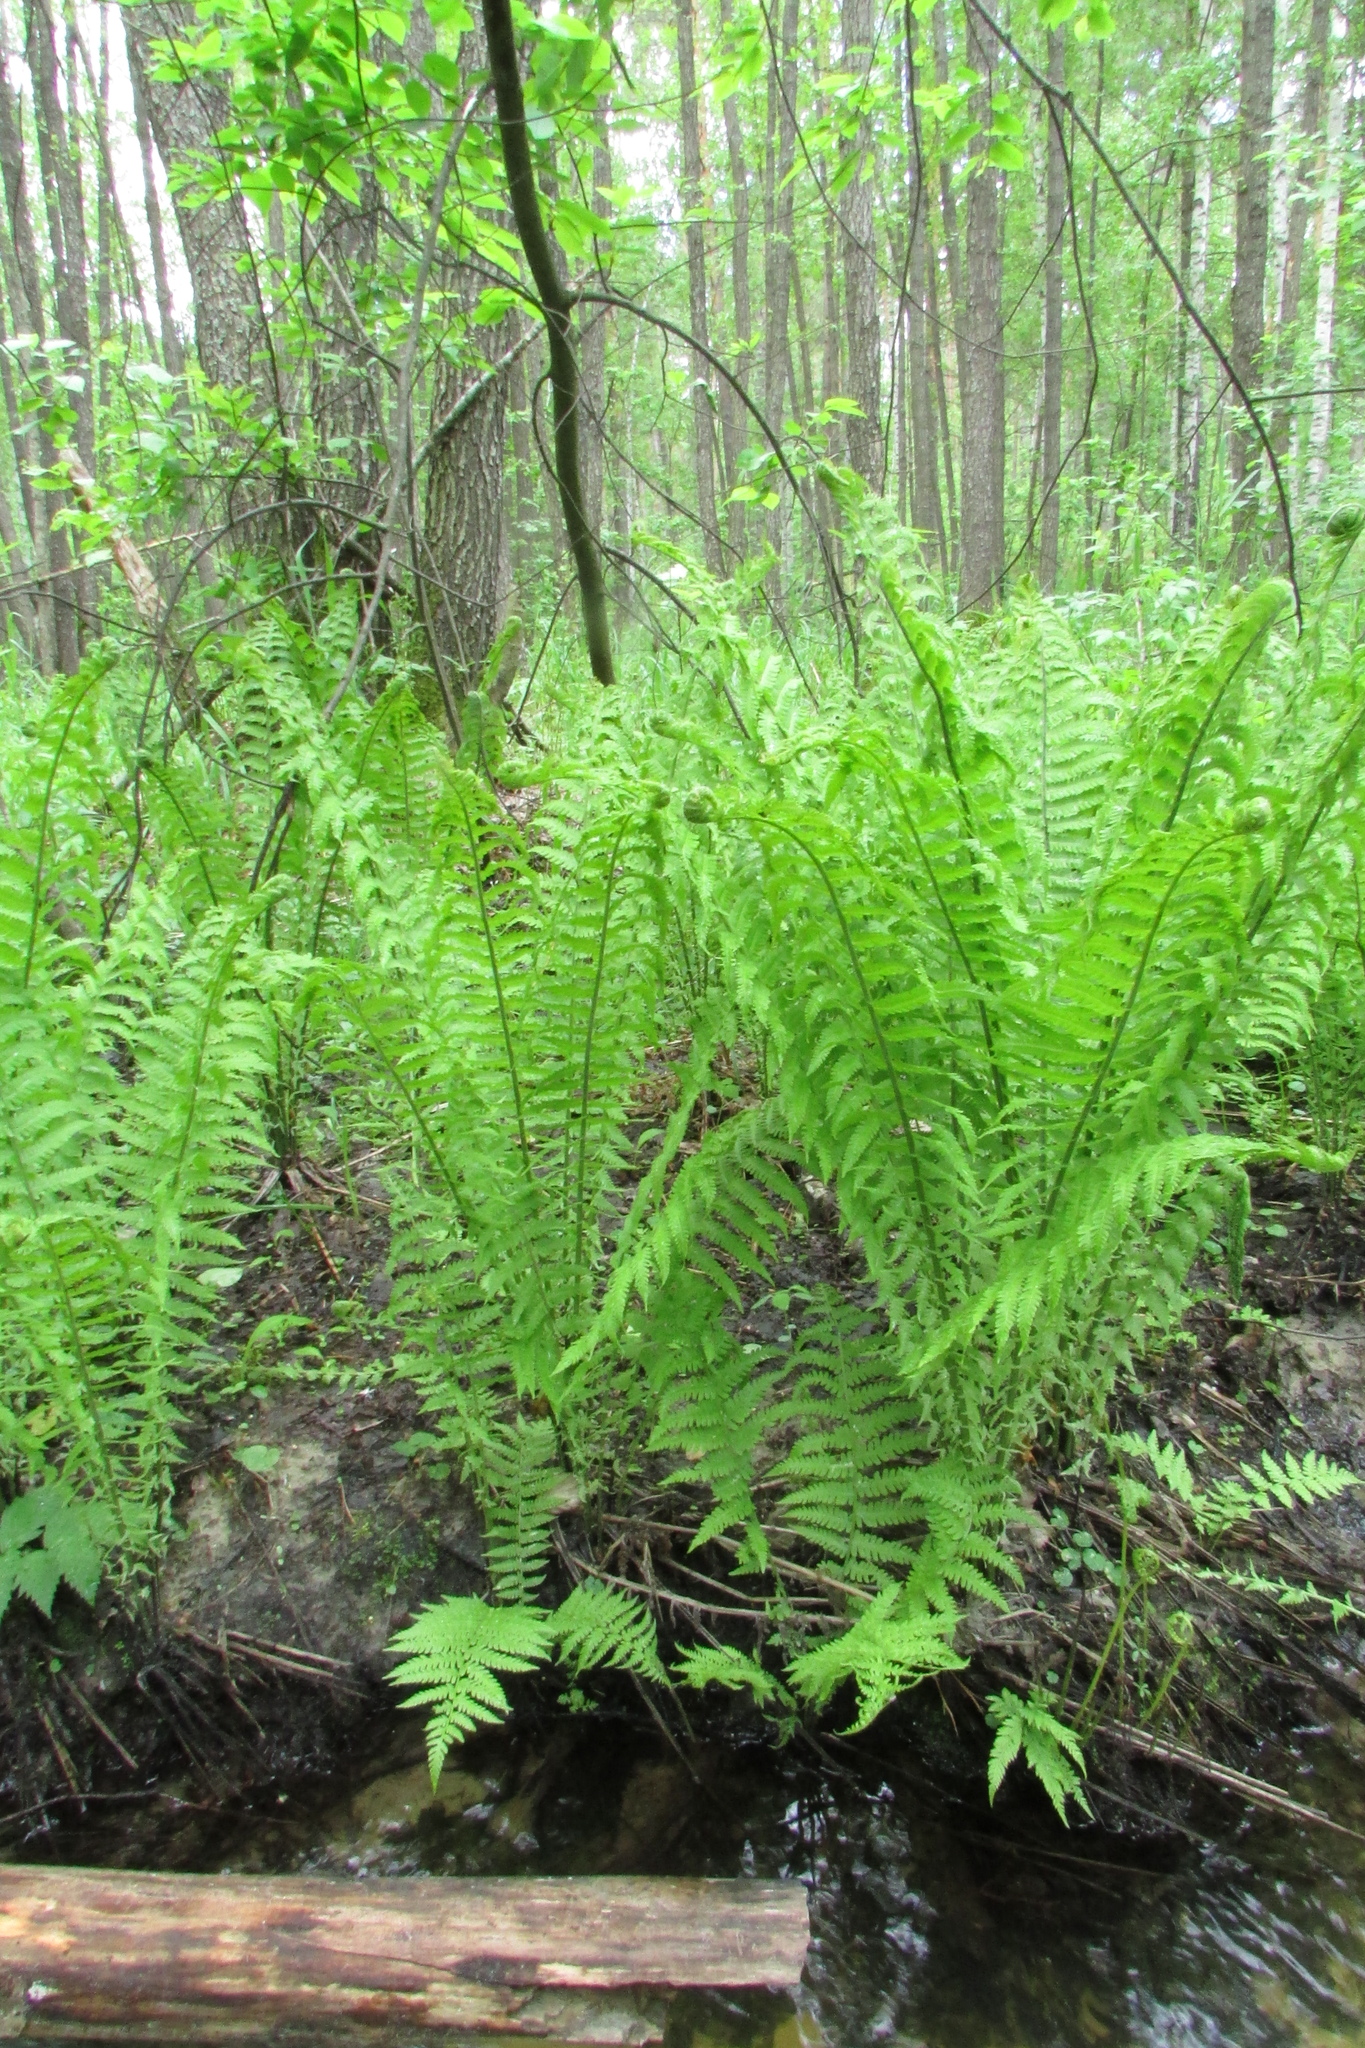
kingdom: Plantae
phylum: Tracheophyta
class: Polypodiopsida
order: Polypodiales
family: Onocleaceae
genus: Matteuccia
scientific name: Matteuccia struthiopteris
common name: Ostrich fern
